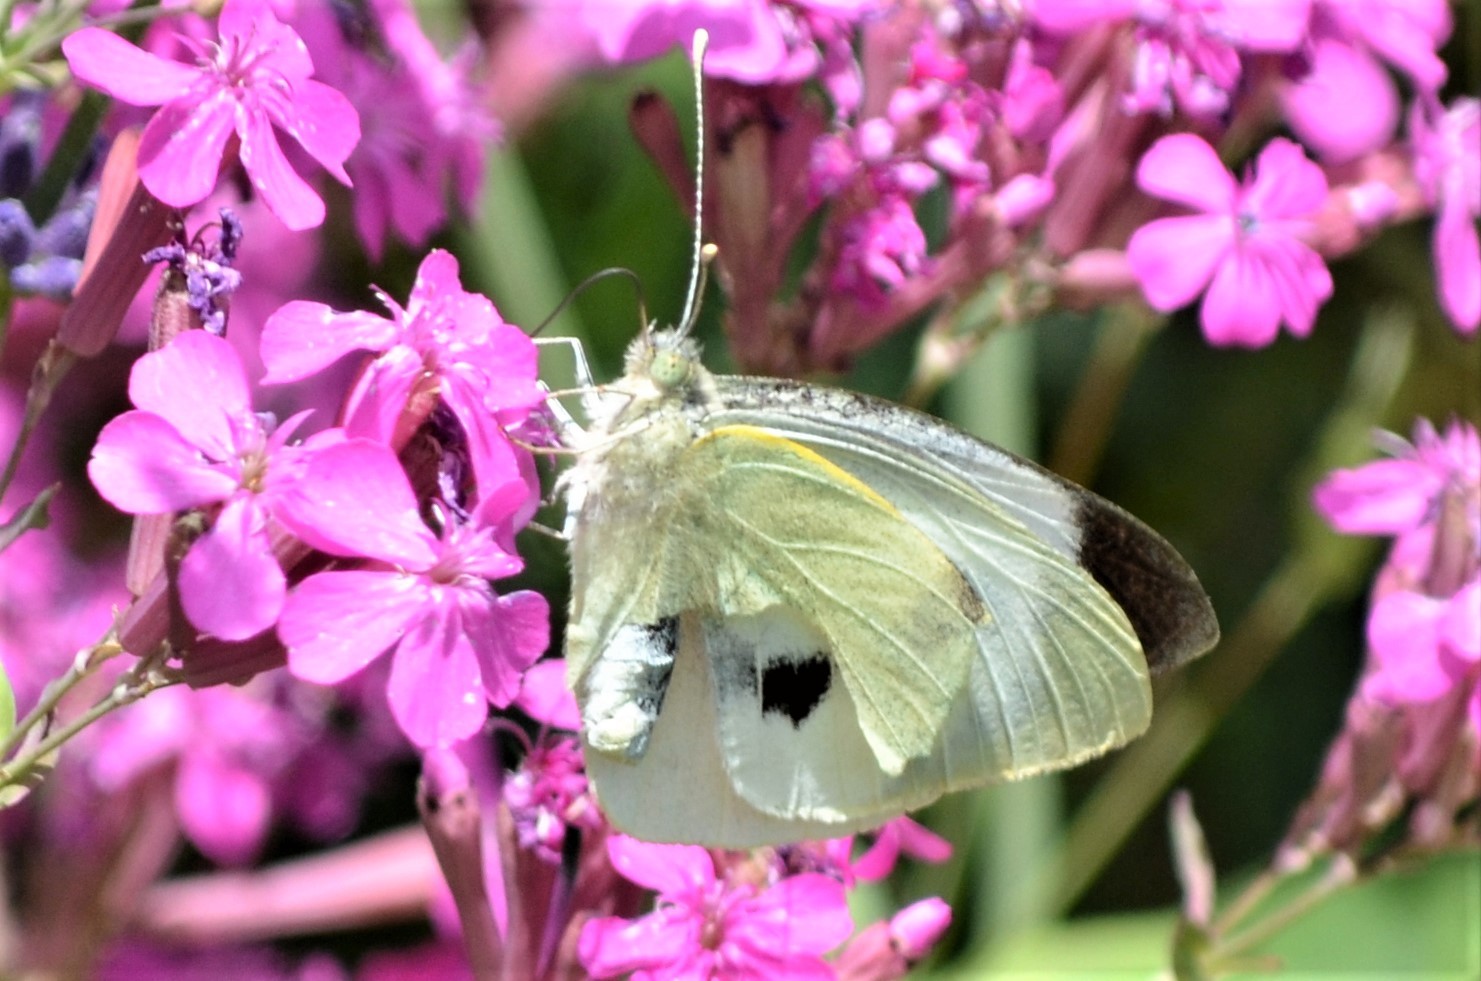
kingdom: Animalia
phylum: Arthropoda
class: Insecta
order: Lepidoptera
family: Pieridae
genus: Pieris
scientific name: Pieris brassicae
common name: Large white
